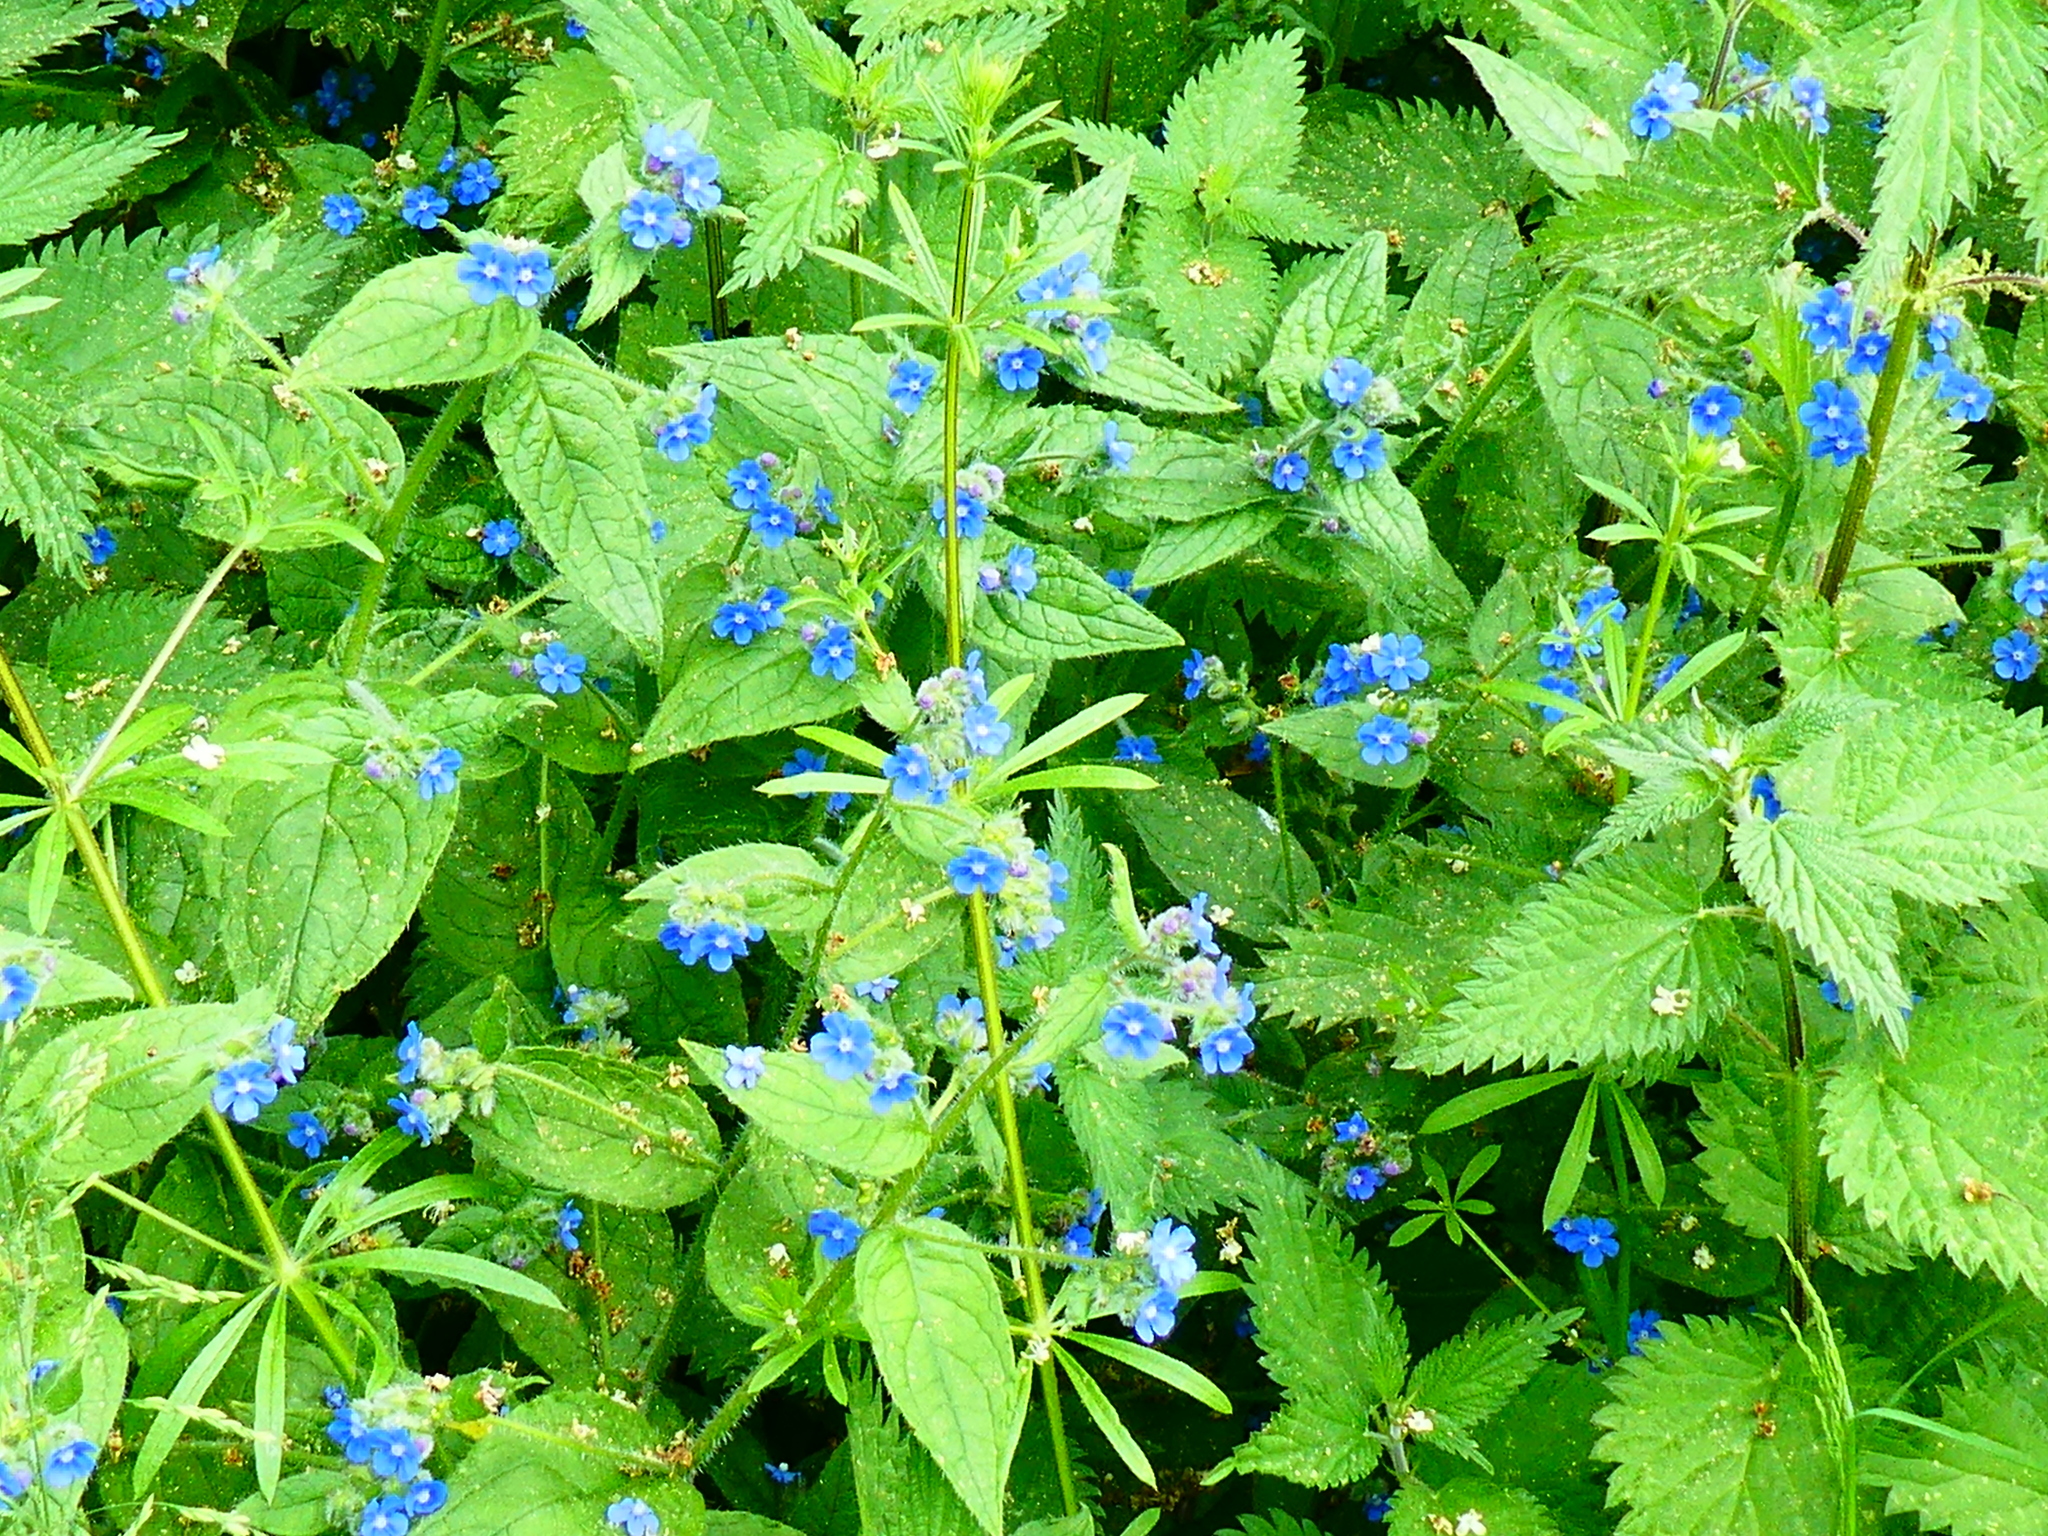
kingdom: Plantae
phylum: Tracheophyta
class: Magnoliopsida
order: Boraginales
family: Boraginaceae
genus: Pentaglottis
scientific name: Pentaglottis sempervirens
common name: Green alkanet
